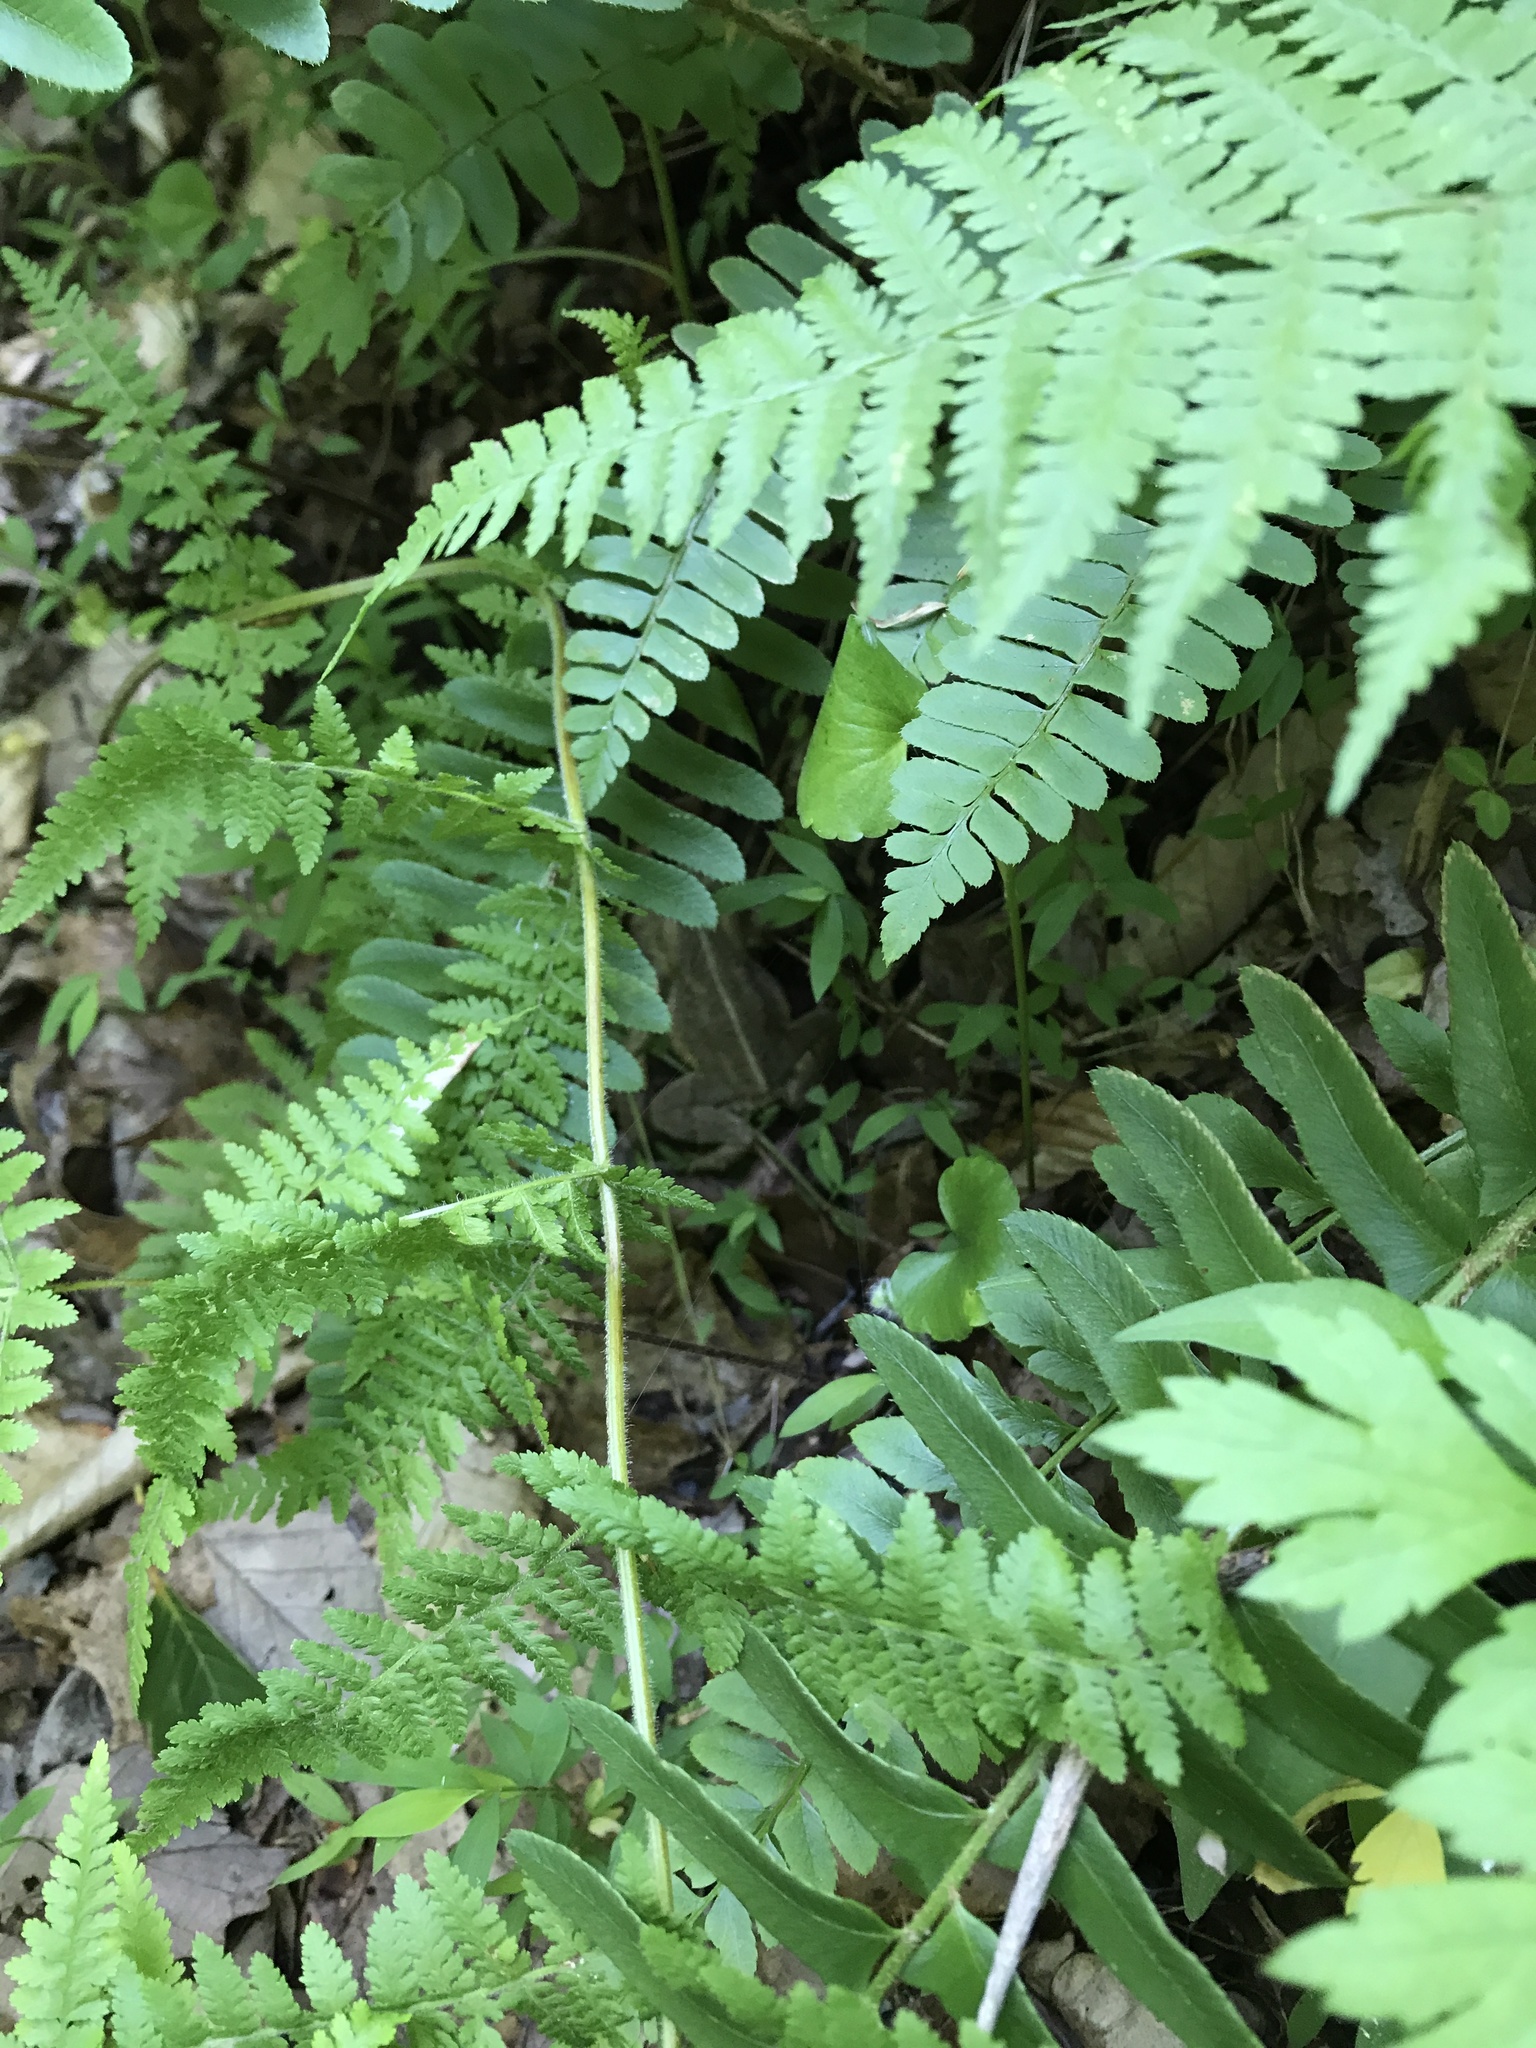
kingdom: Plantae
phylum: Tracheophyta
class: Polypodiopsida
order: Polypodiales
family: Dennstaedtiaceae
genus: Sitobolium
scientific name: Sitobolium punctilobum
